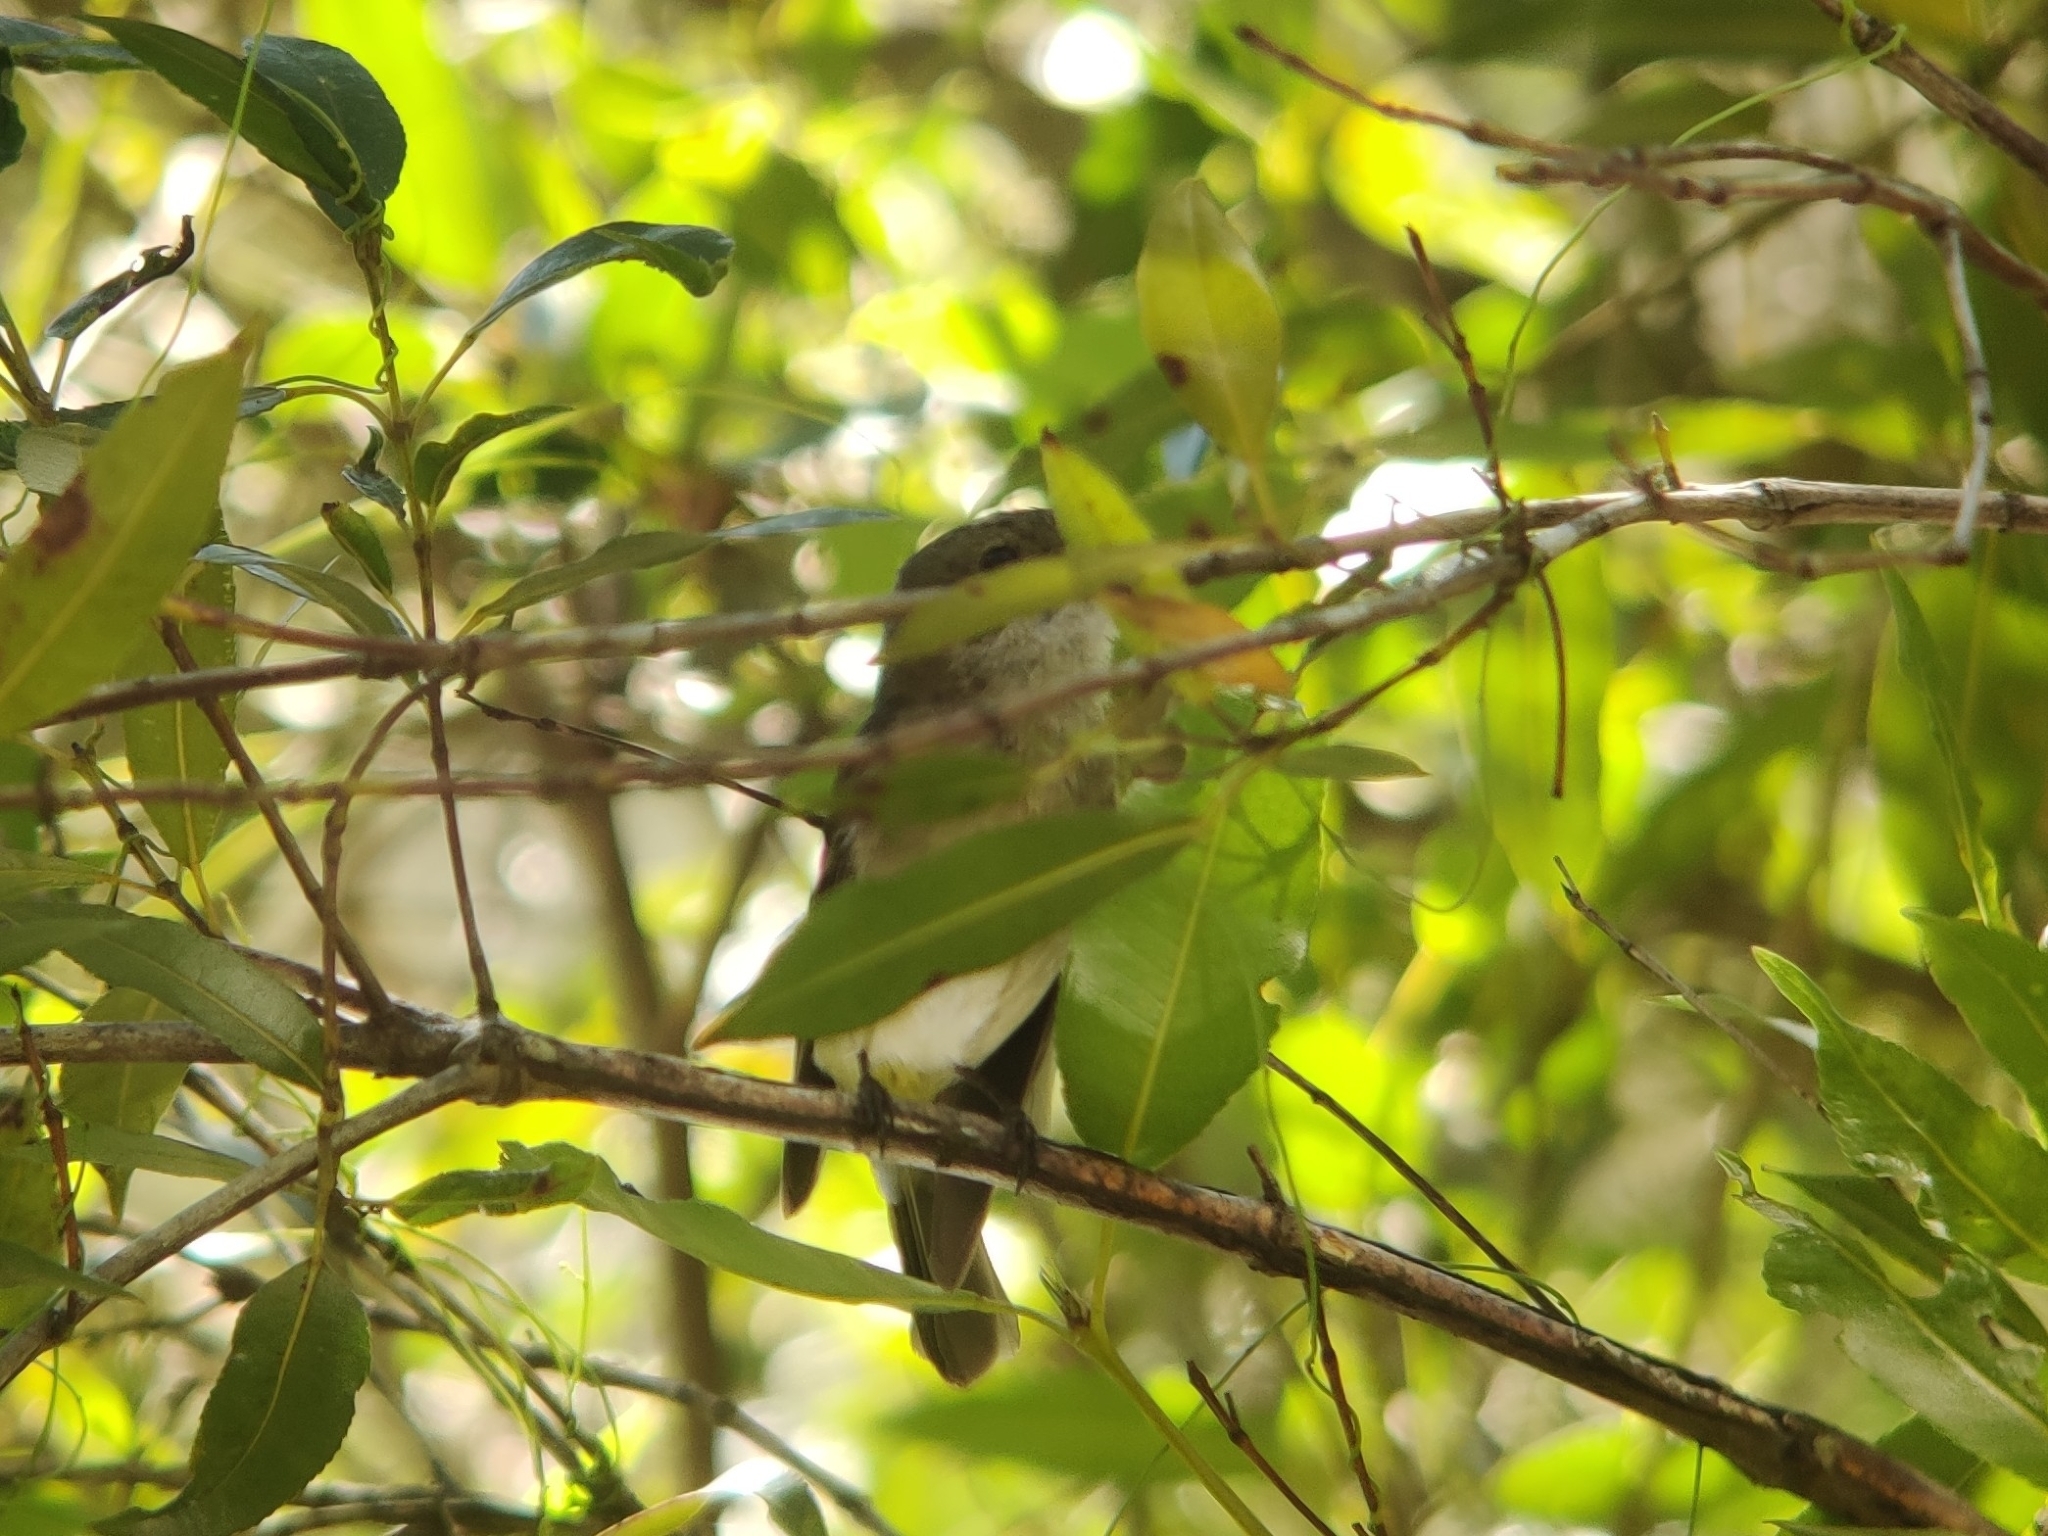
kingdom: Animalia
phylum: Chordata
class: Aves
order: Passeriformes
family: Pachycephalidae
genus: Pachycephala
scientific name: Pachycephala pectoralis
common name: Australian golden whistler
